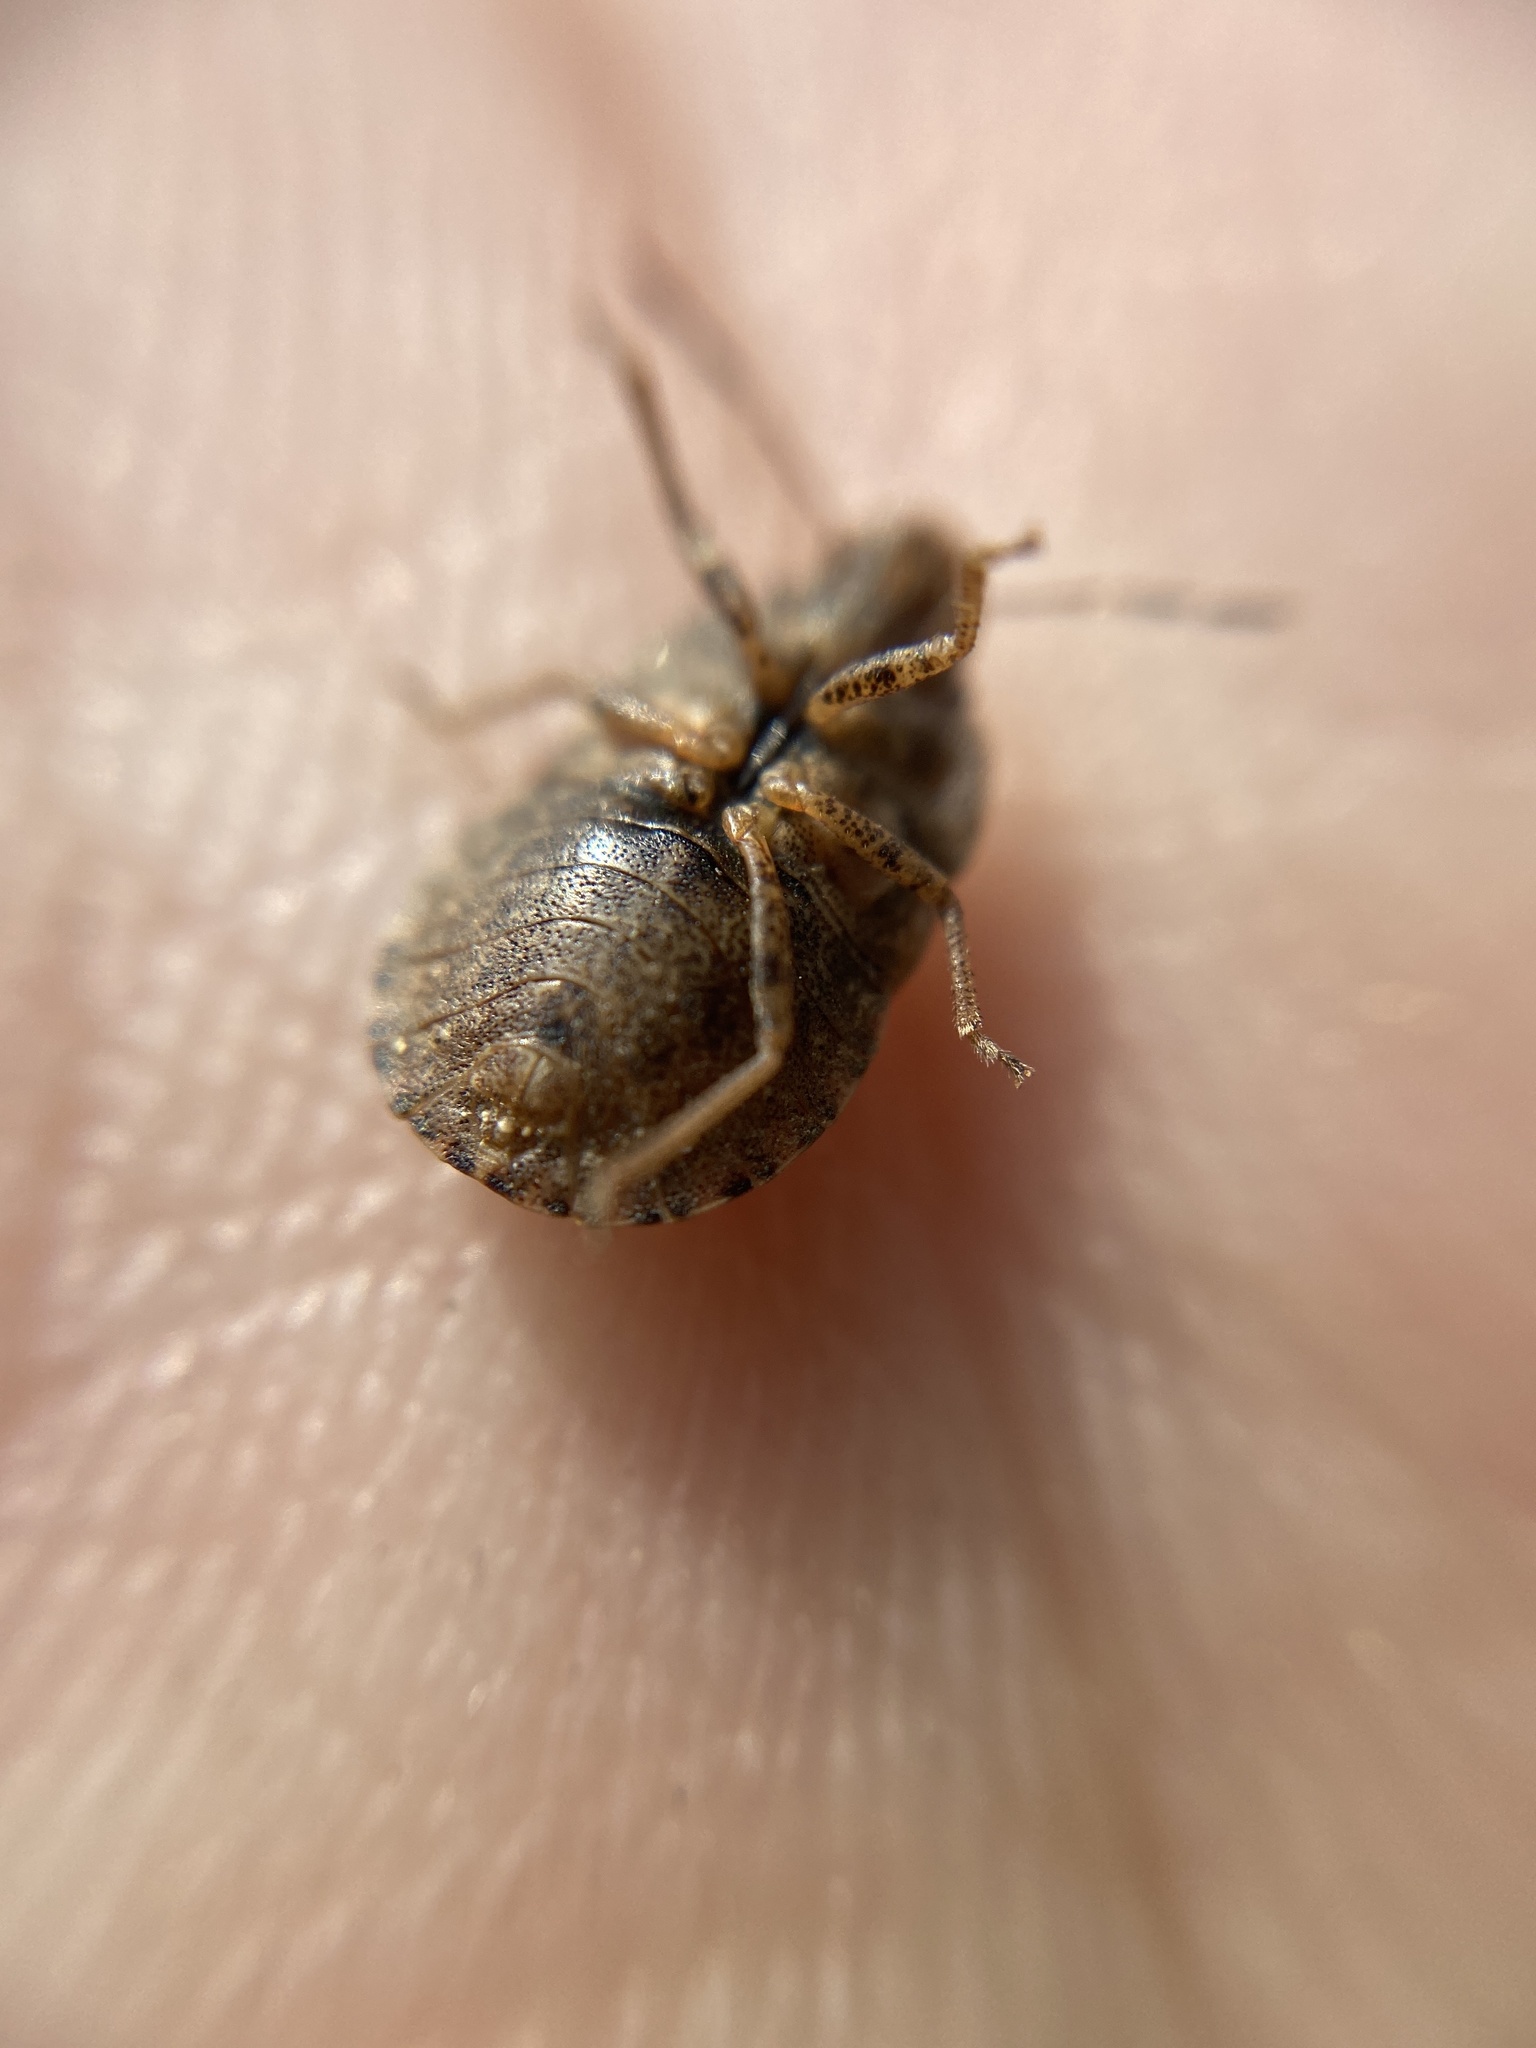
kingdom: Animalia
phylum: Arthropoda
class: Insecta
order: Hemiptera
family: Pentatomidae
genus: Sciocoris
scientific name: Sciocoris homalonotus
